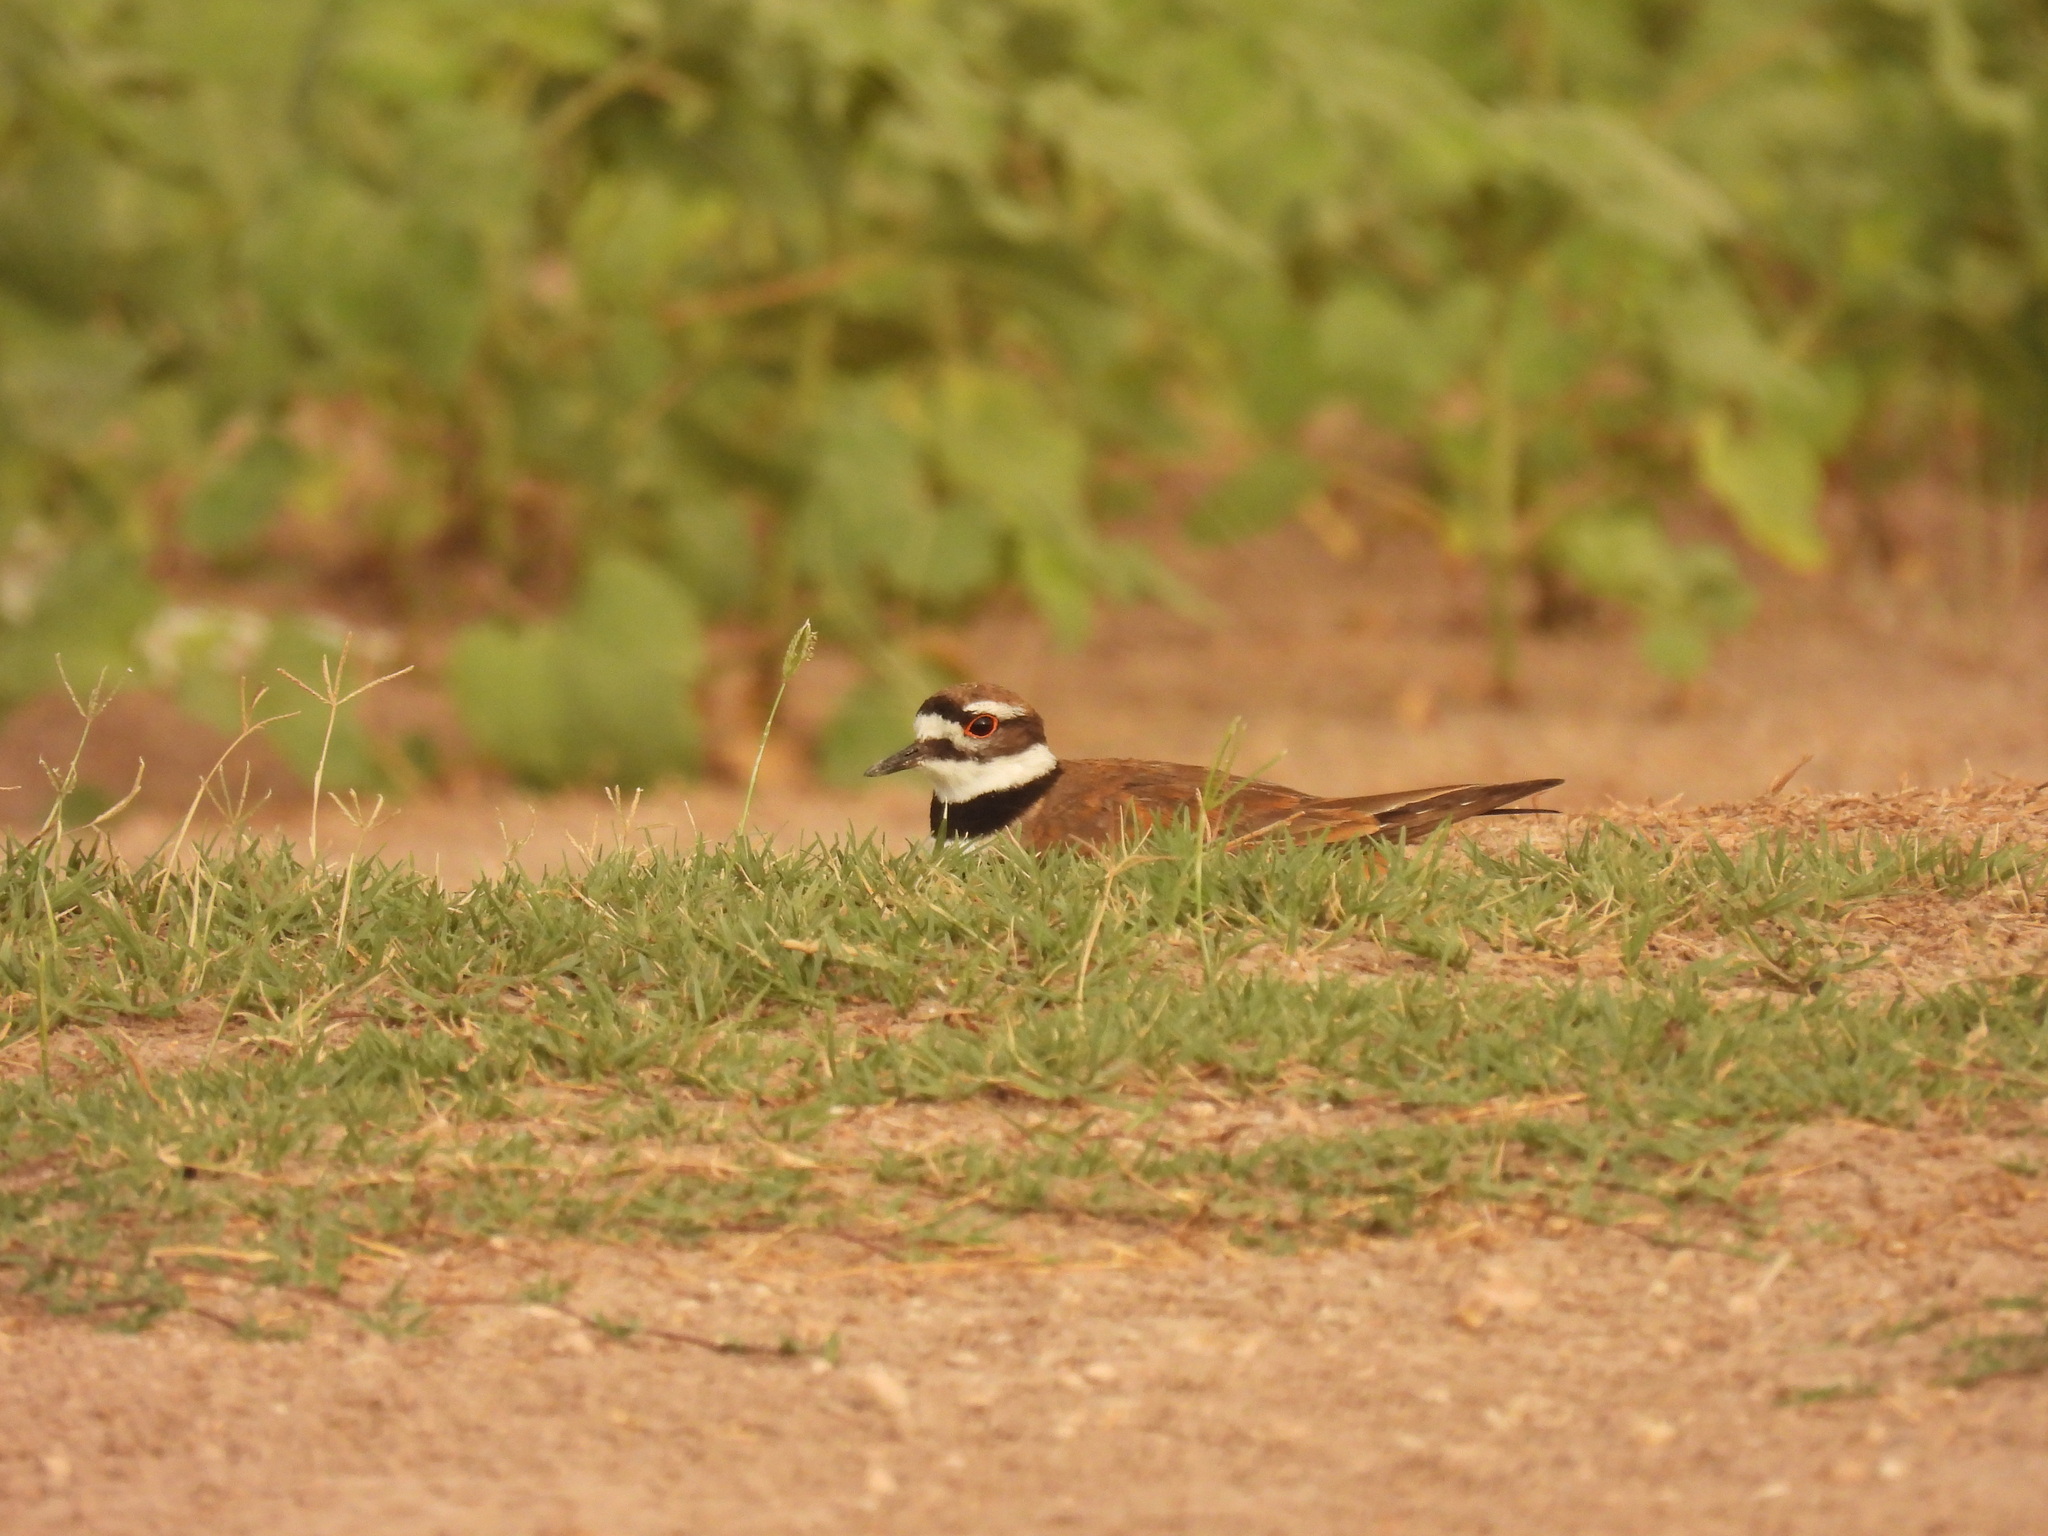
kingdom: Animalia
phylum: Chordata
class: Aves
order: Charadriiformes
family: Charadriidae
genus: Charadrius
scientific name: Charadrius vociferus
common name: Killdeer
